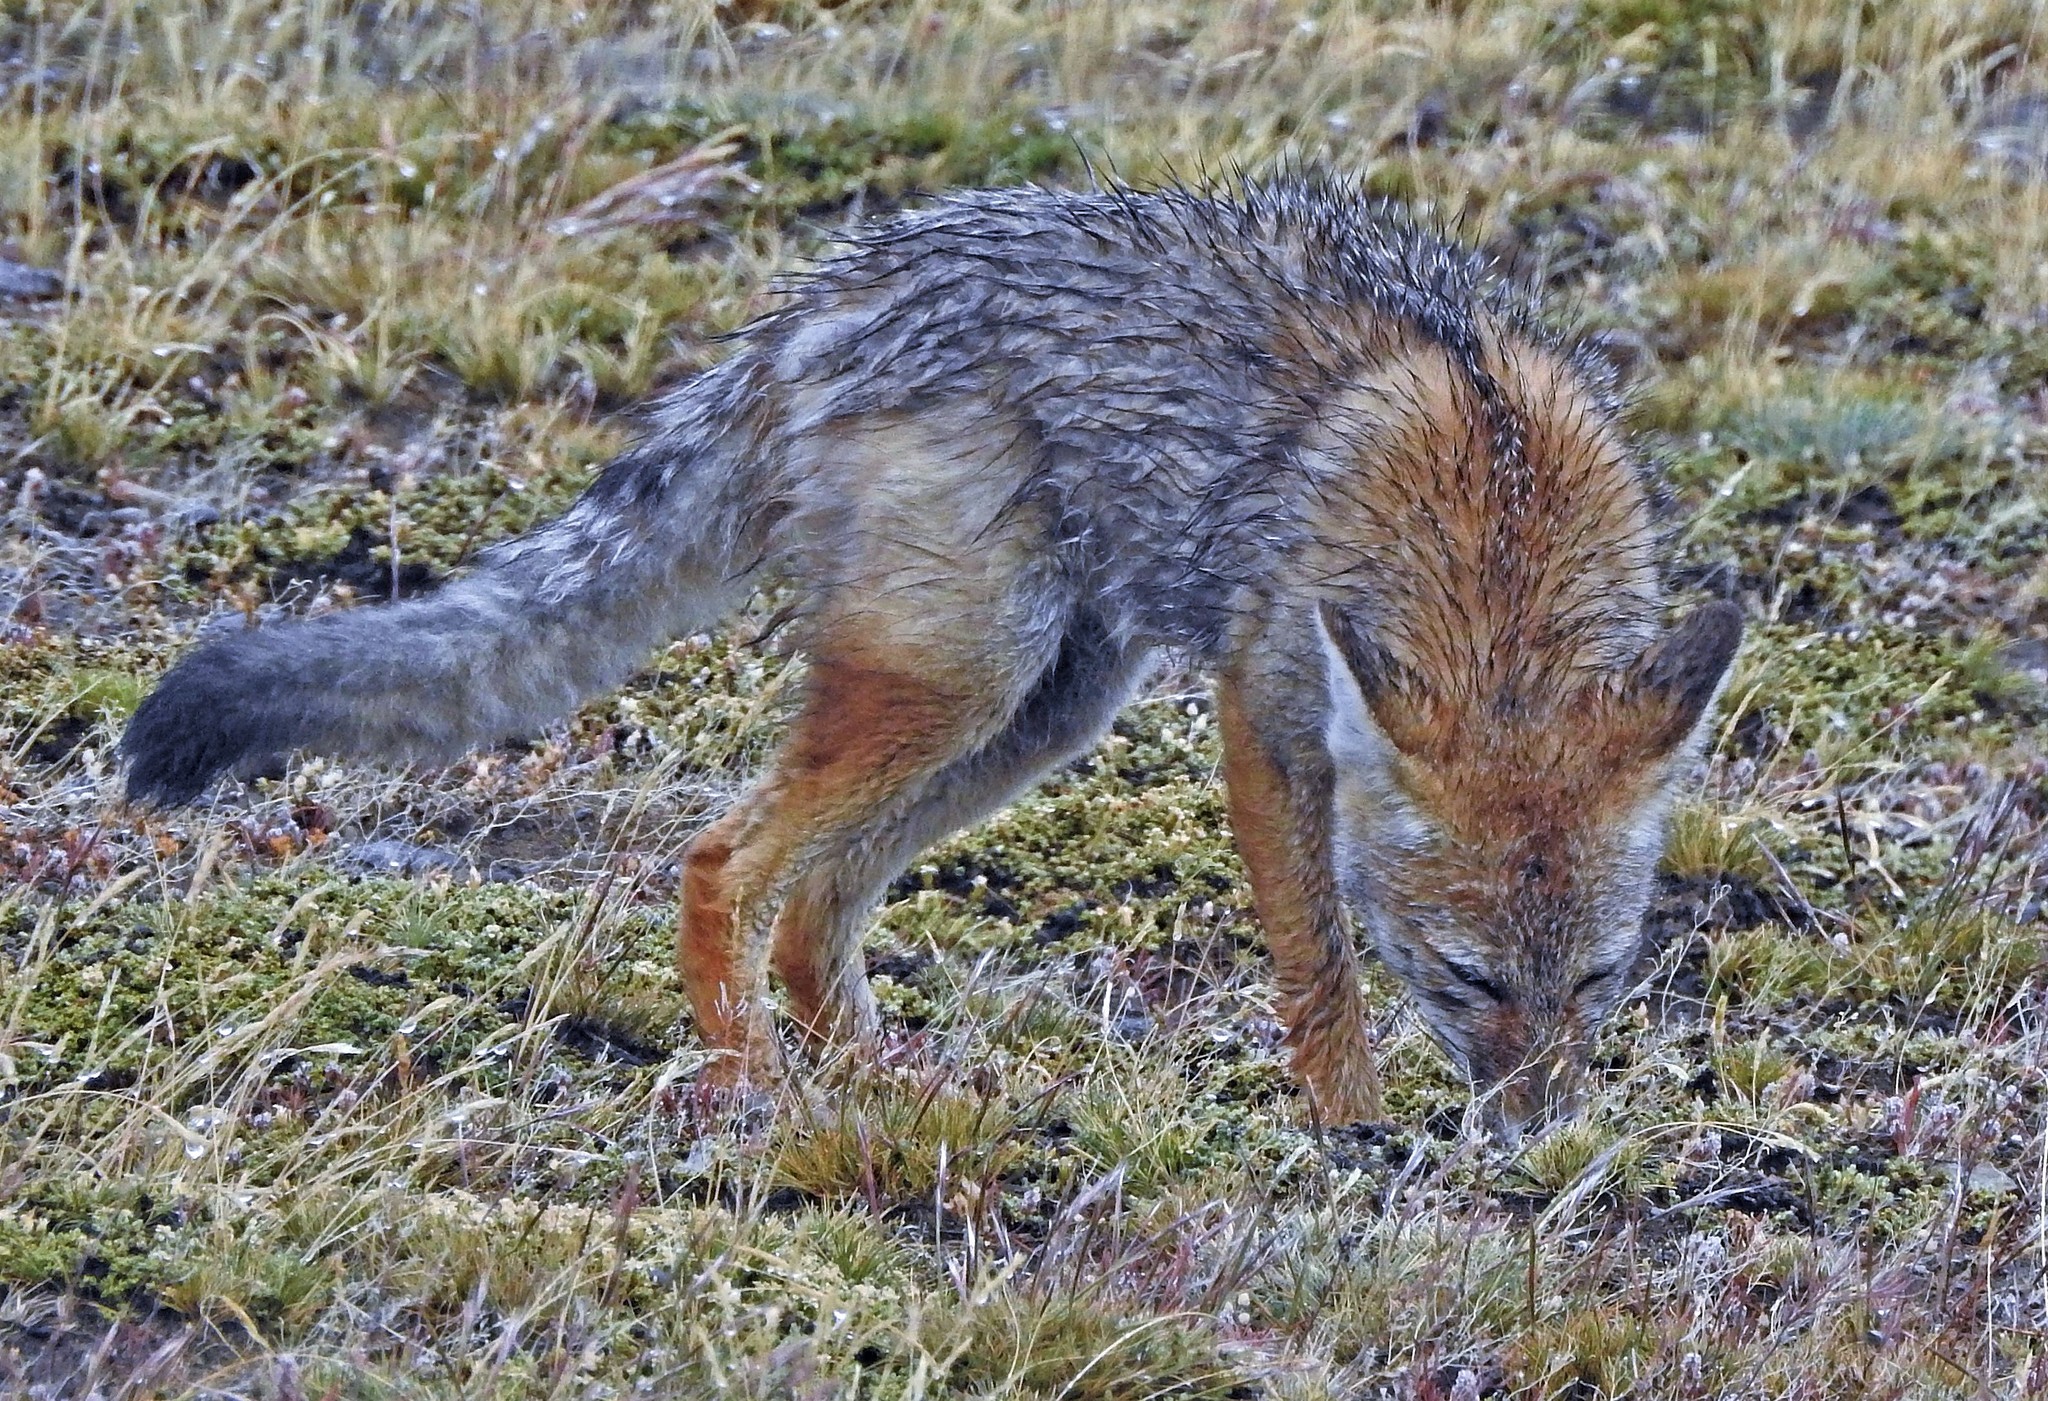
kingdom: Animalia
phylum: Chordata
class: Mammalia
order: Carnivora
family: Canidae
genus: Lycalopex
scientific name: Lycalopex culpaeus
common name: Culpeo
